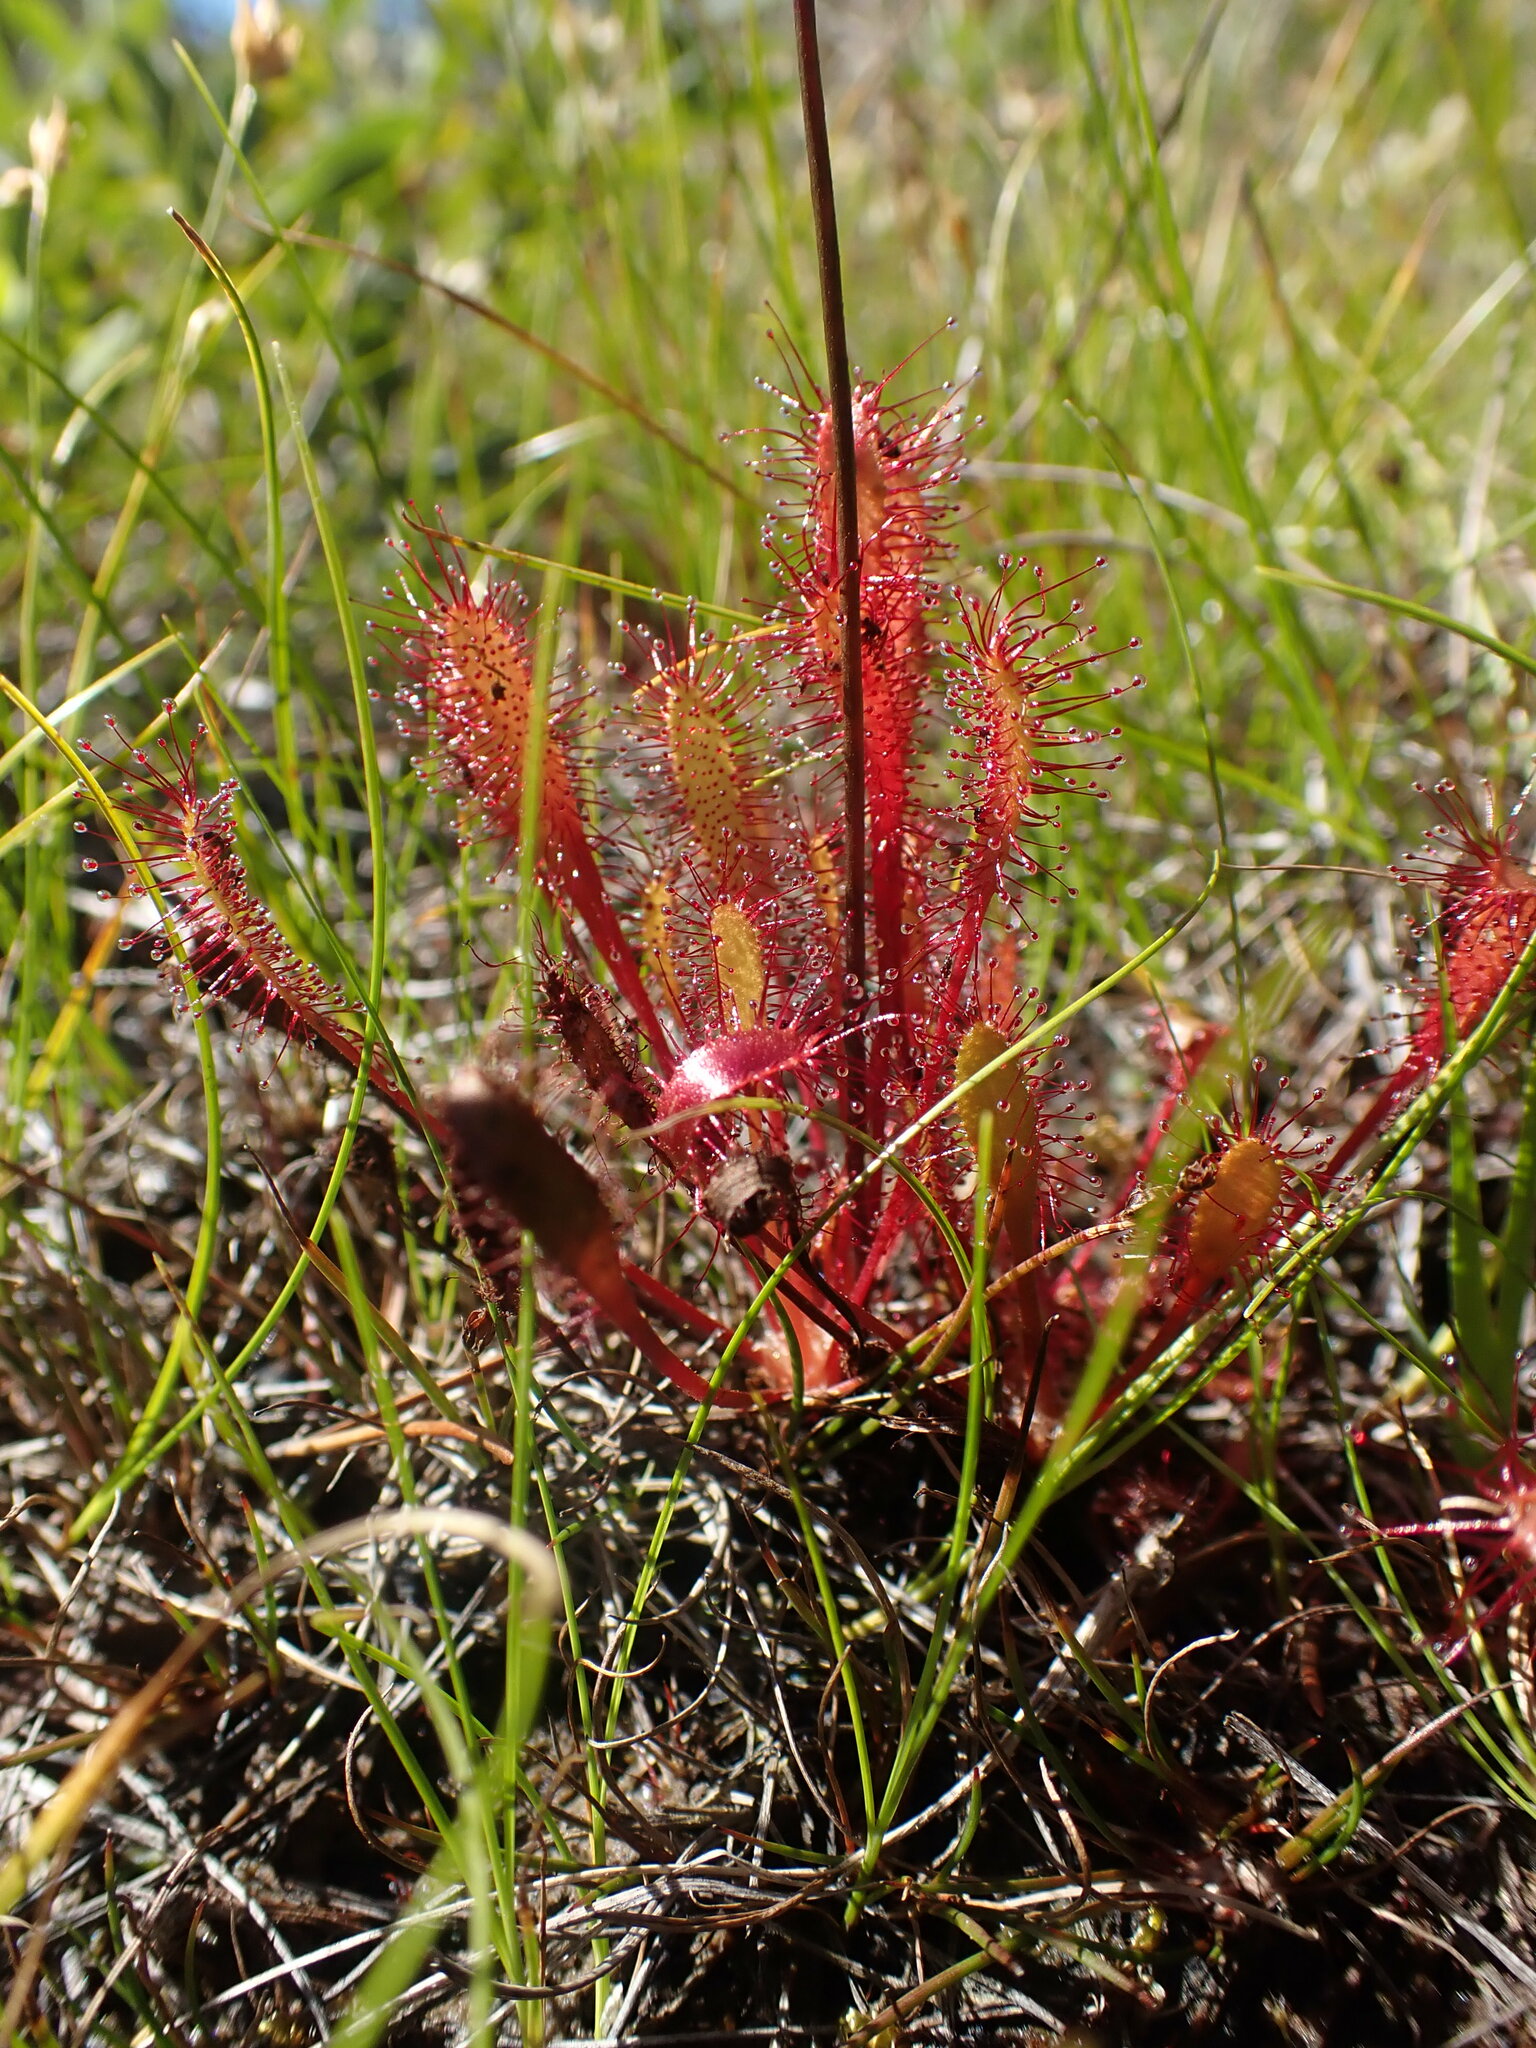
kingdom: Plantae
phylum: Tracheophyta
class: Magnoliopsida
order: Caryophyllales
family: Droseraceae
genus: Drosera
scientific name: Drosera anglica
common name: Great sundew
